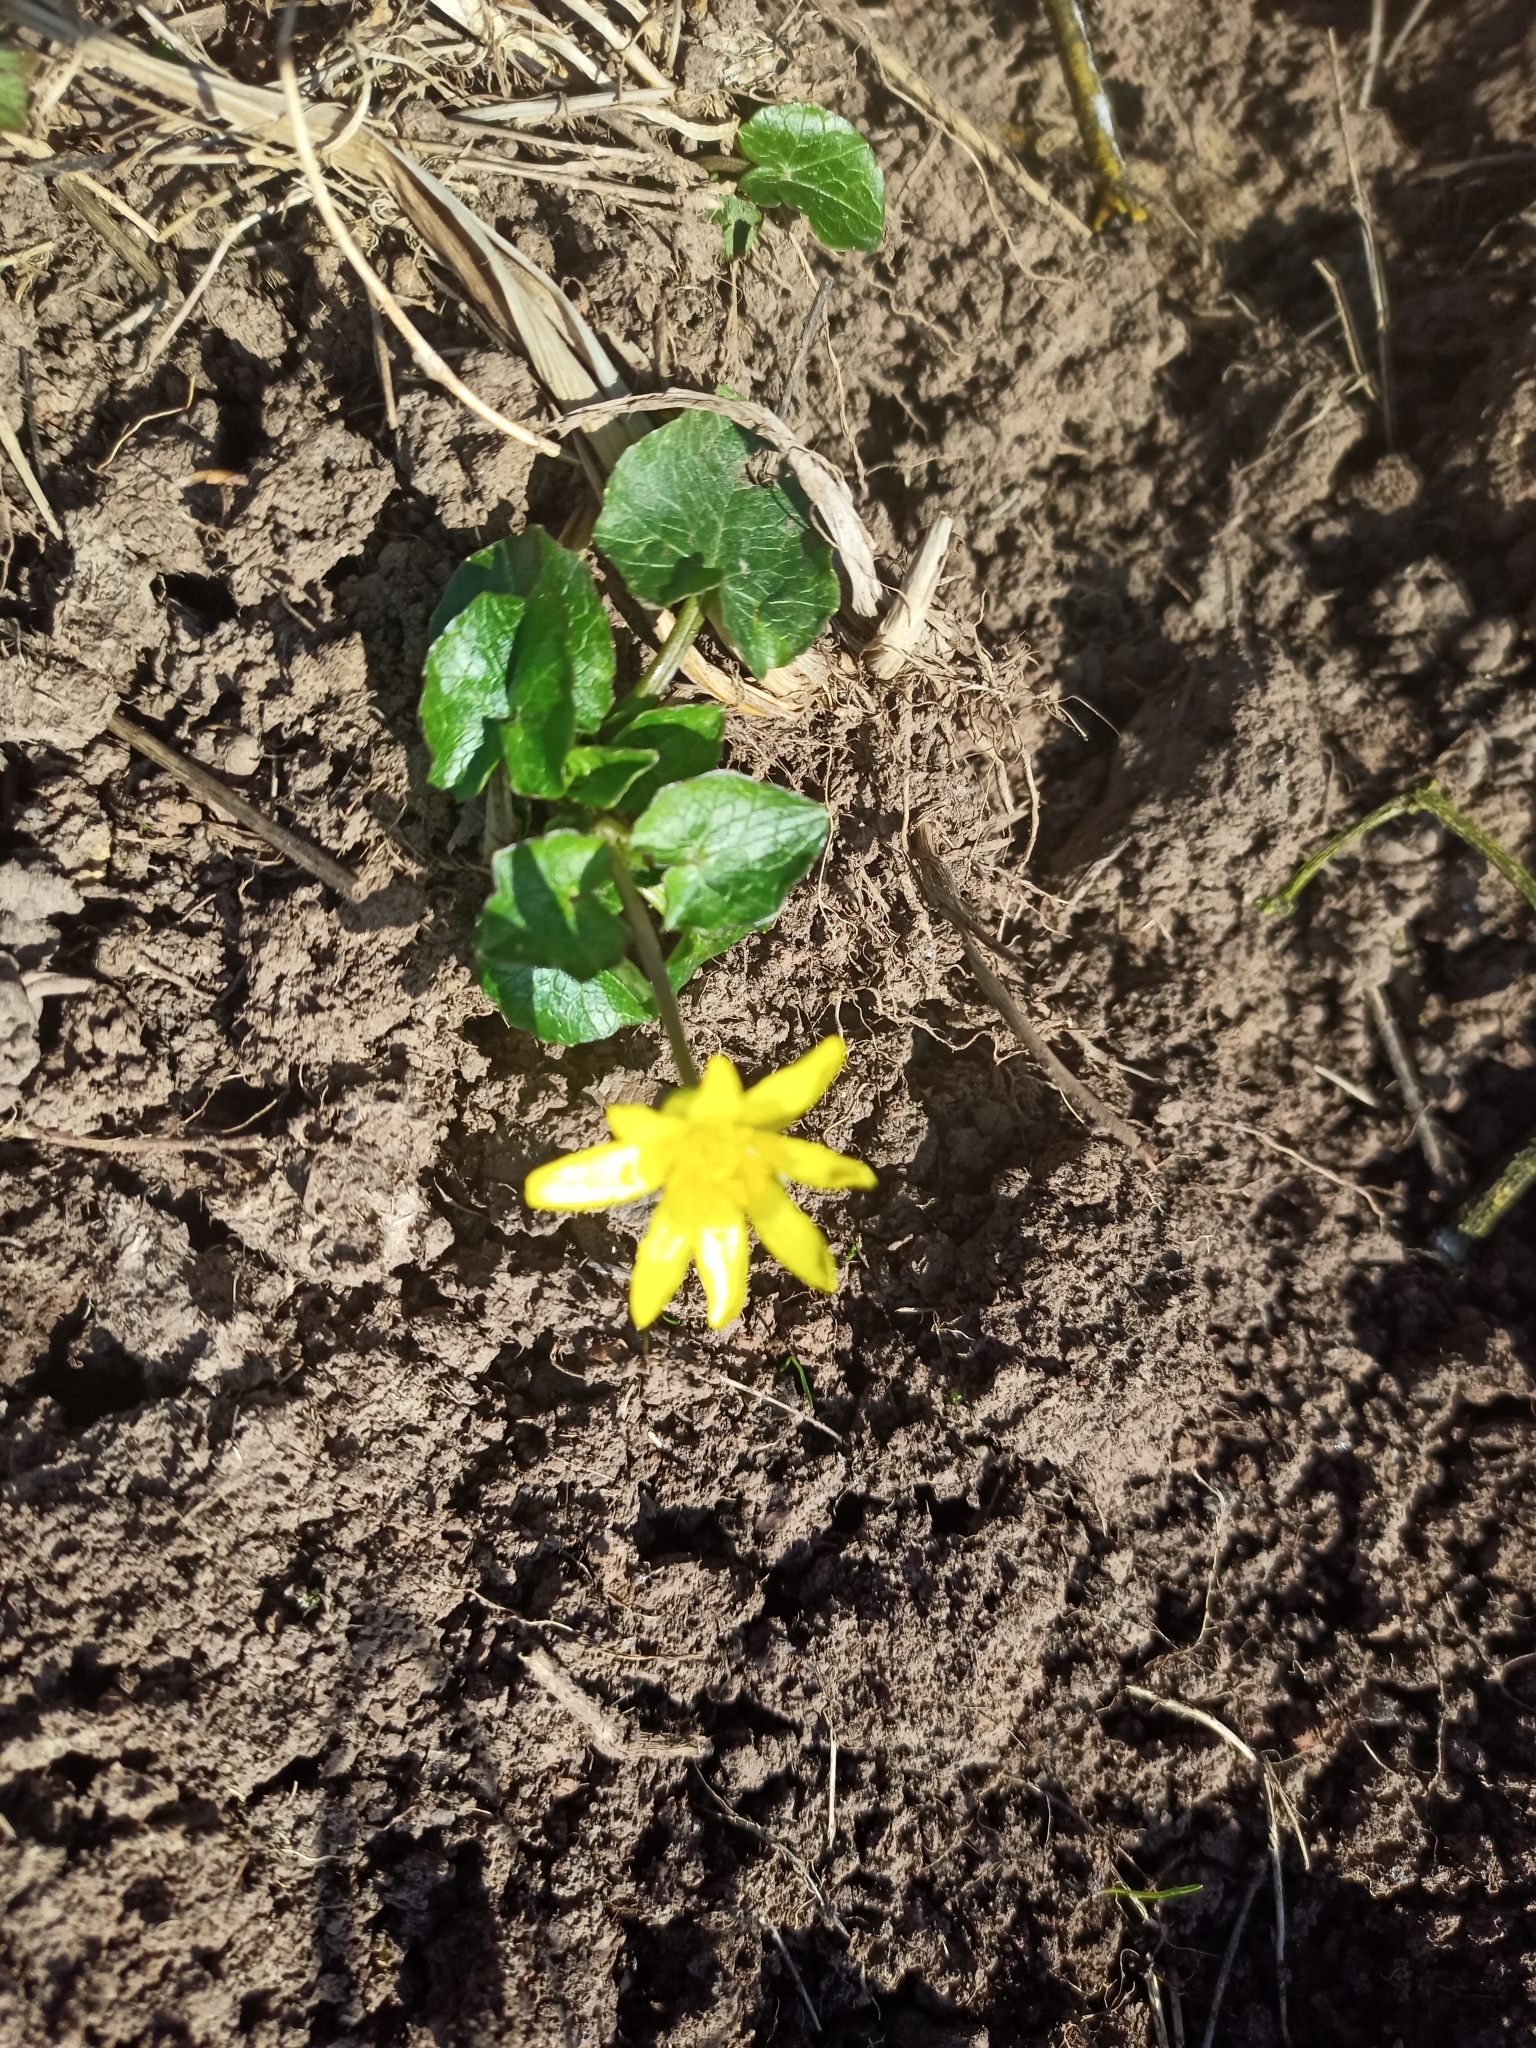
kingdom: Plantae
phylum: Tracheophyta
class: Magnoliopsida
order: Ranunculales
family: Ranunculaceae
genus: Ficaria
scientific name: Ficaria verna
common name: Lesser celandine
